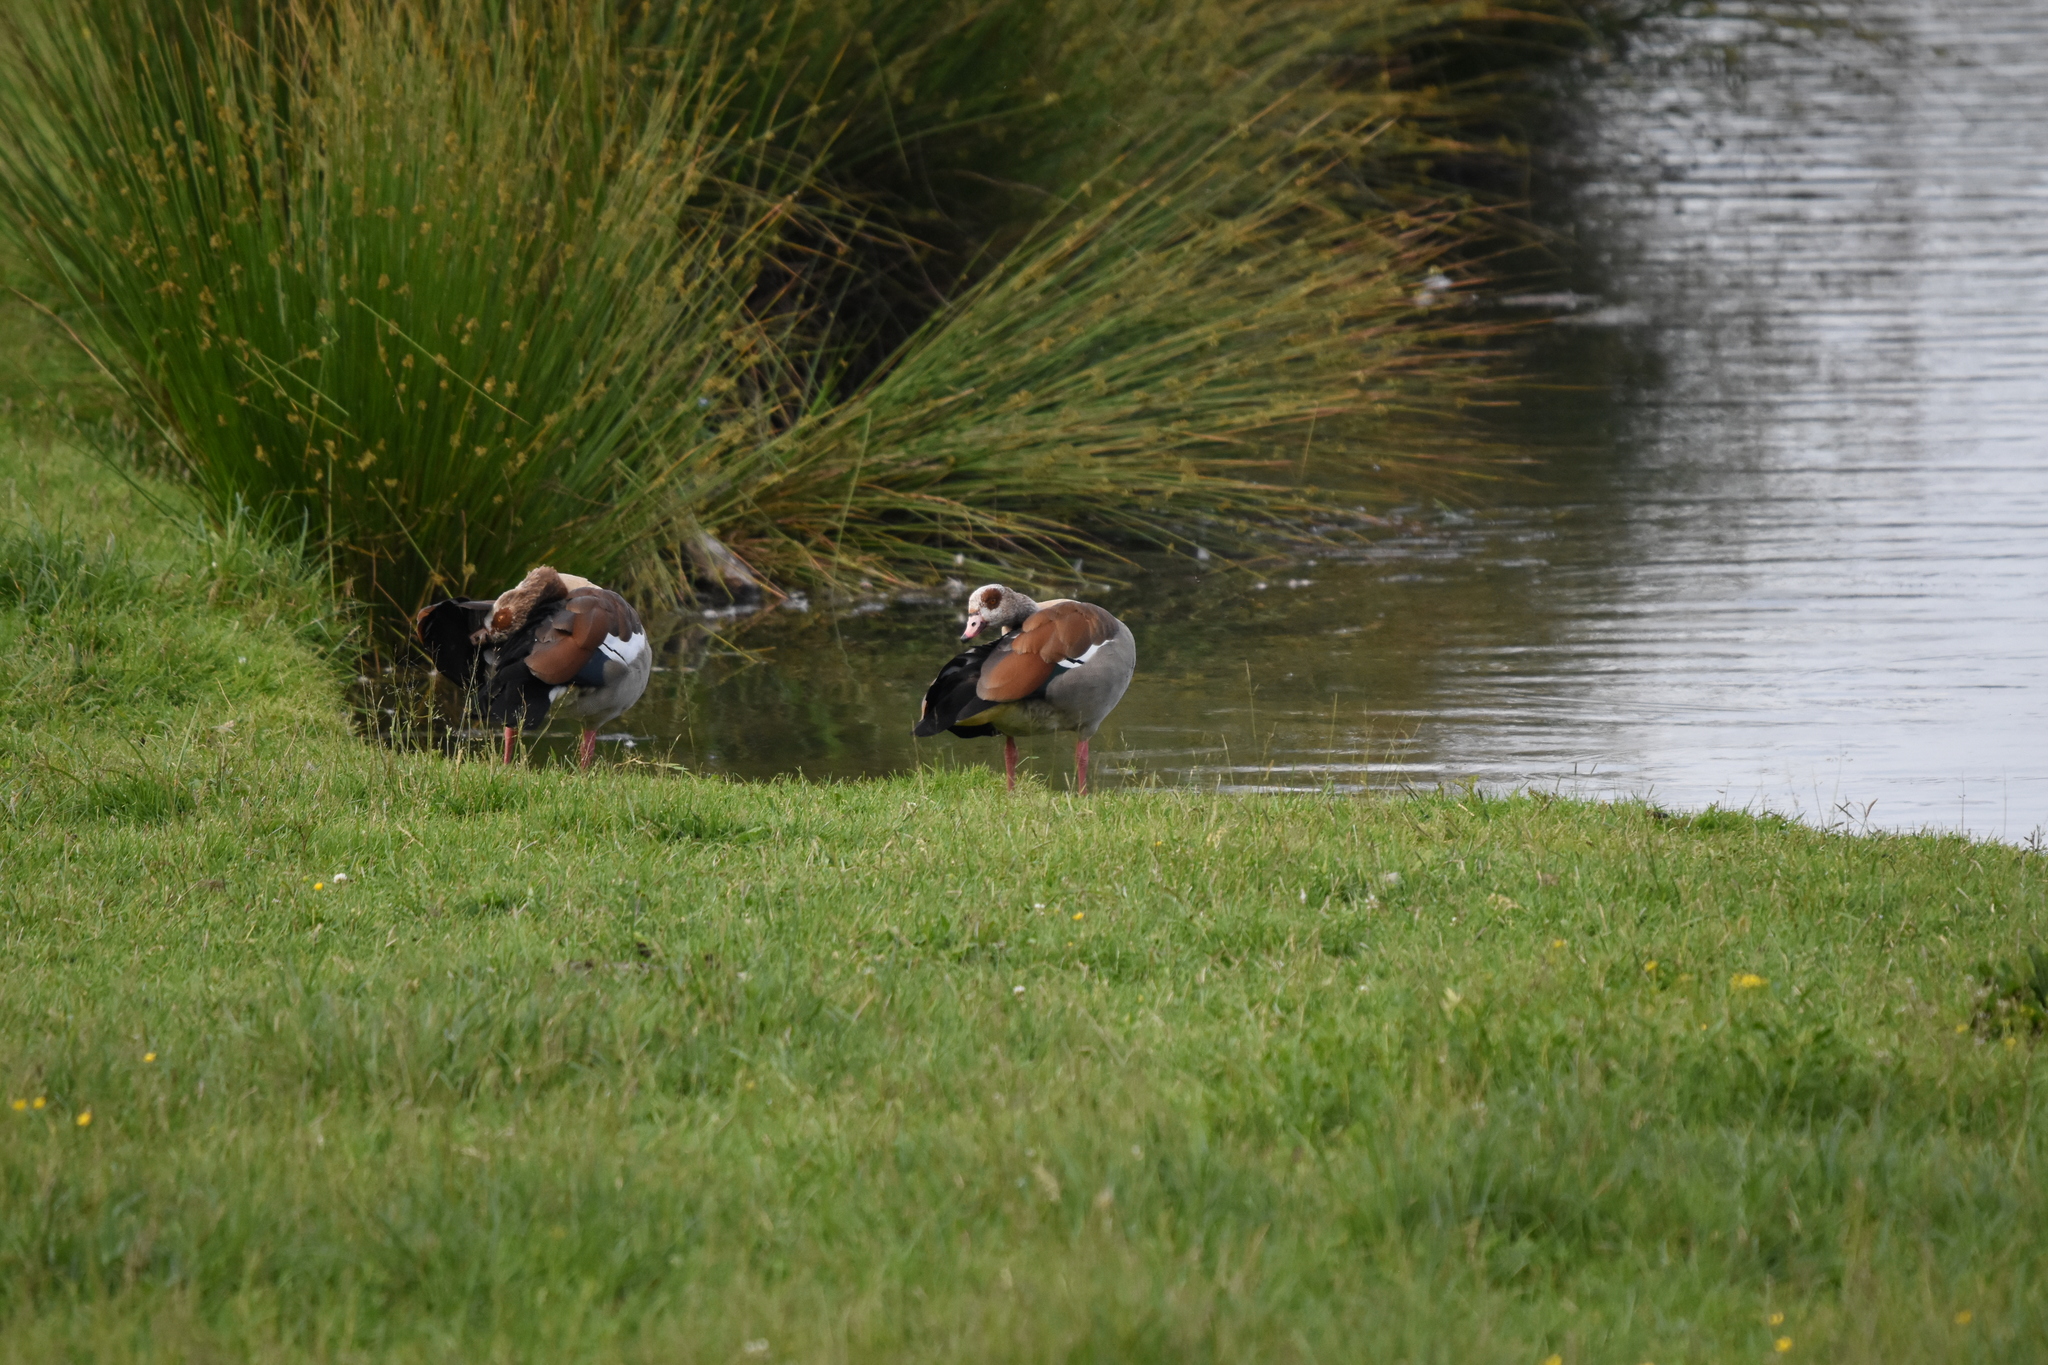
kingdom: Animalia
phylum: Chordata
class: Aves
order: Anseriformes
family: Anatidae
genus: Alopochen
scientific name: Alopochen aegyptiaca
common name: Egyptian goose
